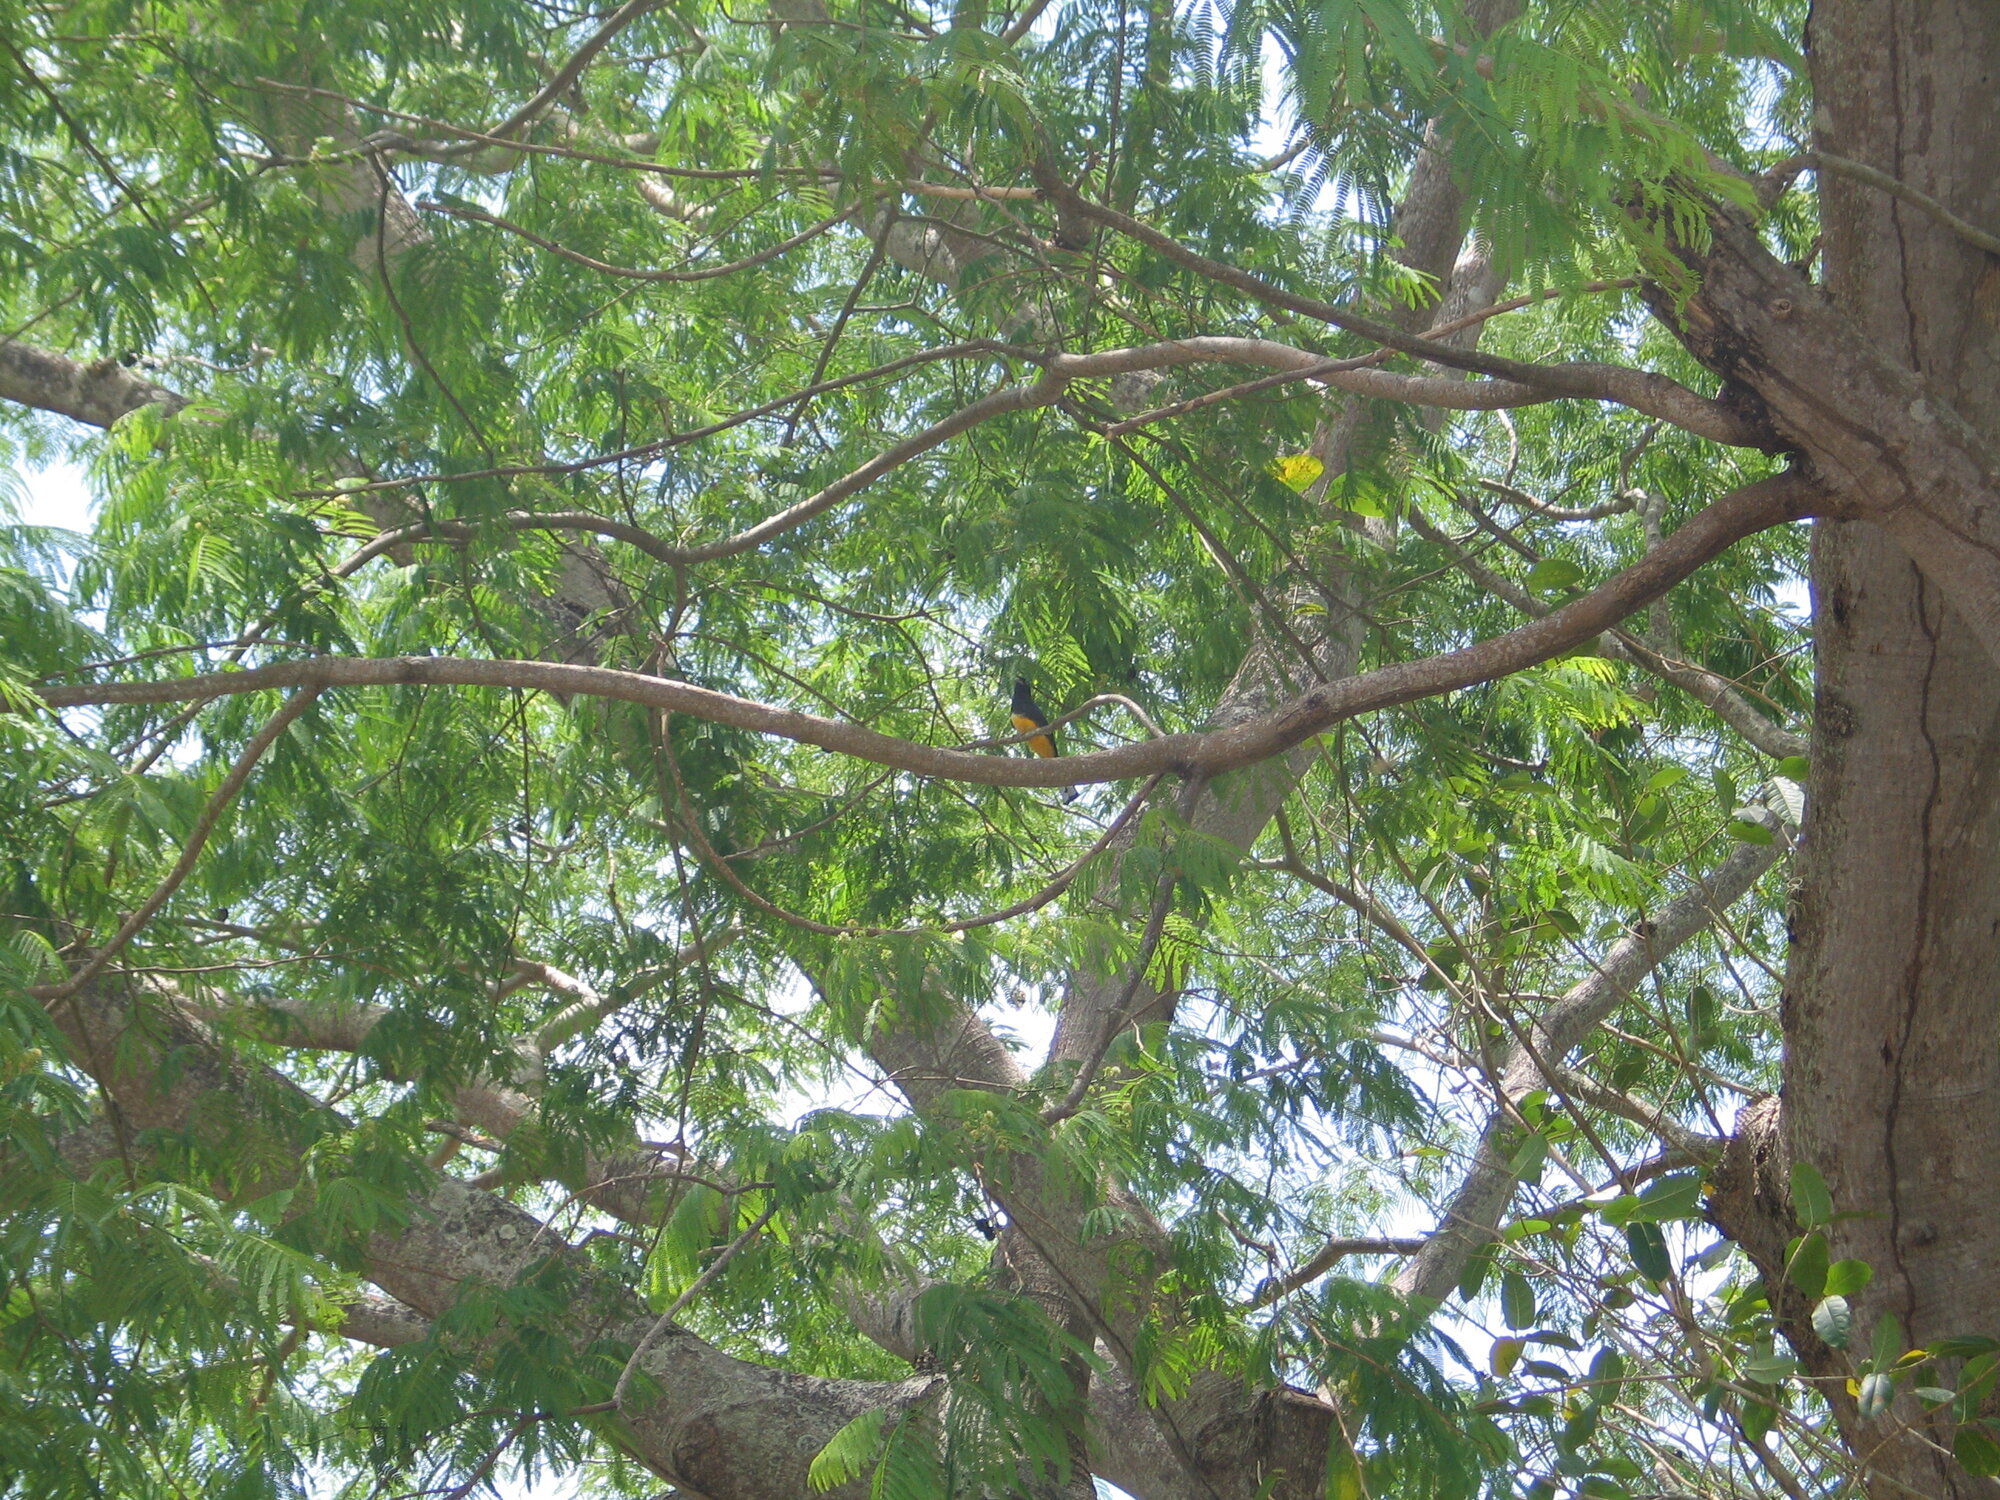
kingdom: Animalia
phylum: Chordata
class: Aves
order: Trogoniformes
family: Trogonidae
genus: Trogon
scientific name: Trogon melanocephalus
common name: Black-headed trogon
